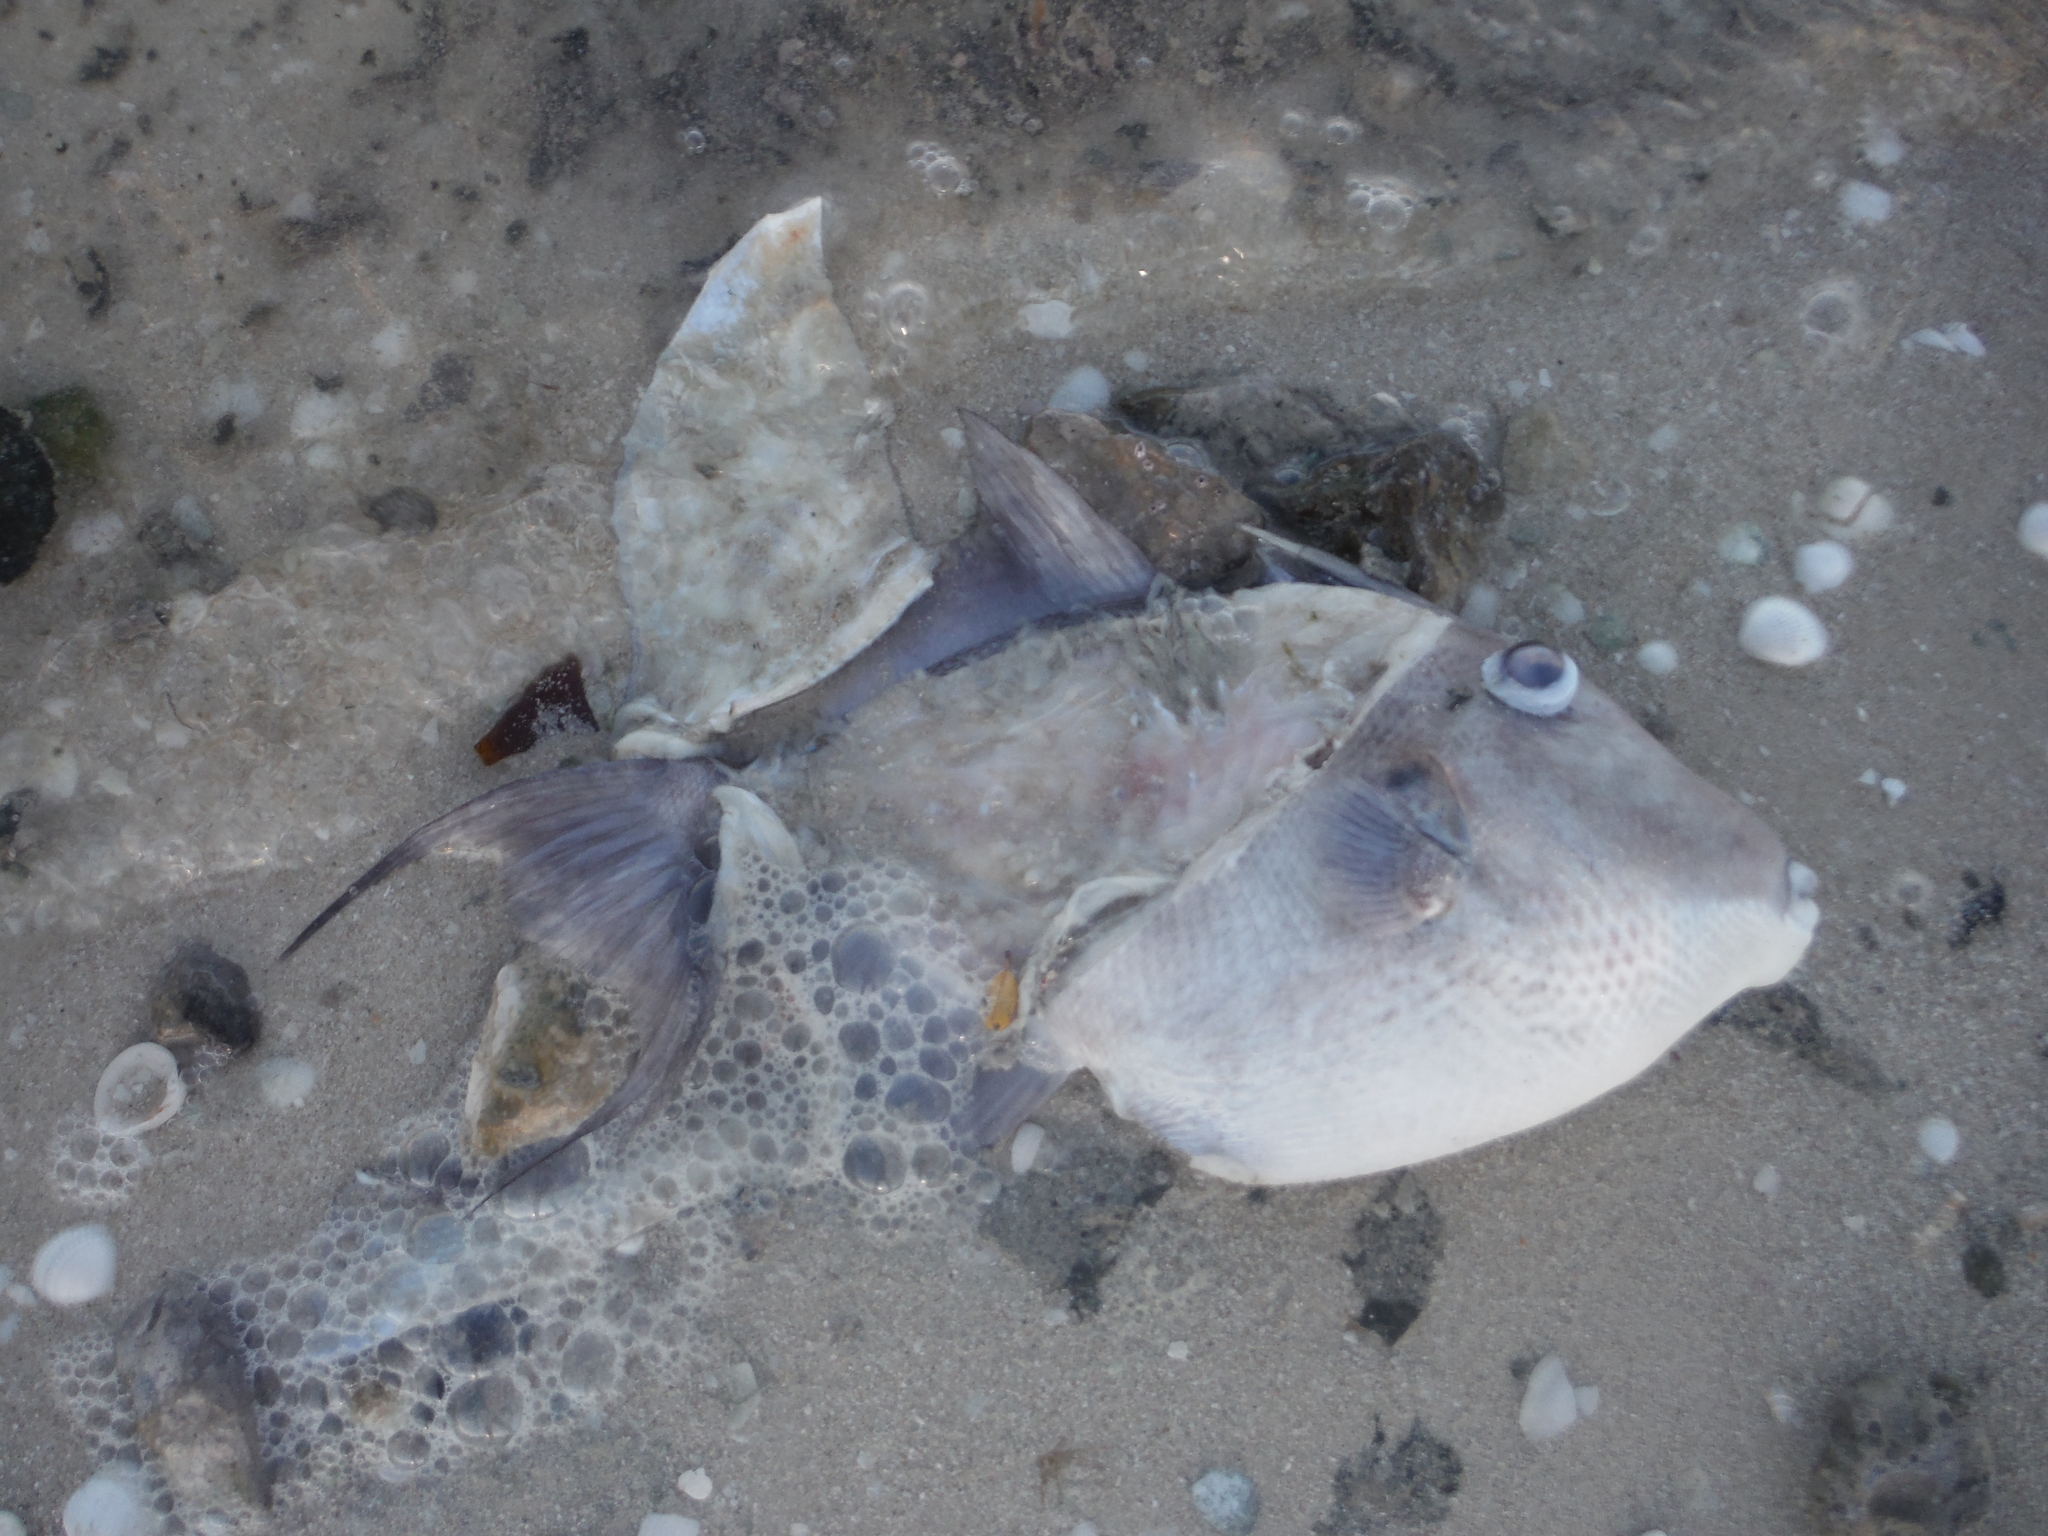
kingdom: Animalia
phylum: Chordata
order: Tetraodontiformes
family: Balistidae
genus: Balistes
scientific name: Balistes capriscus
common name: Grey triggerfish
